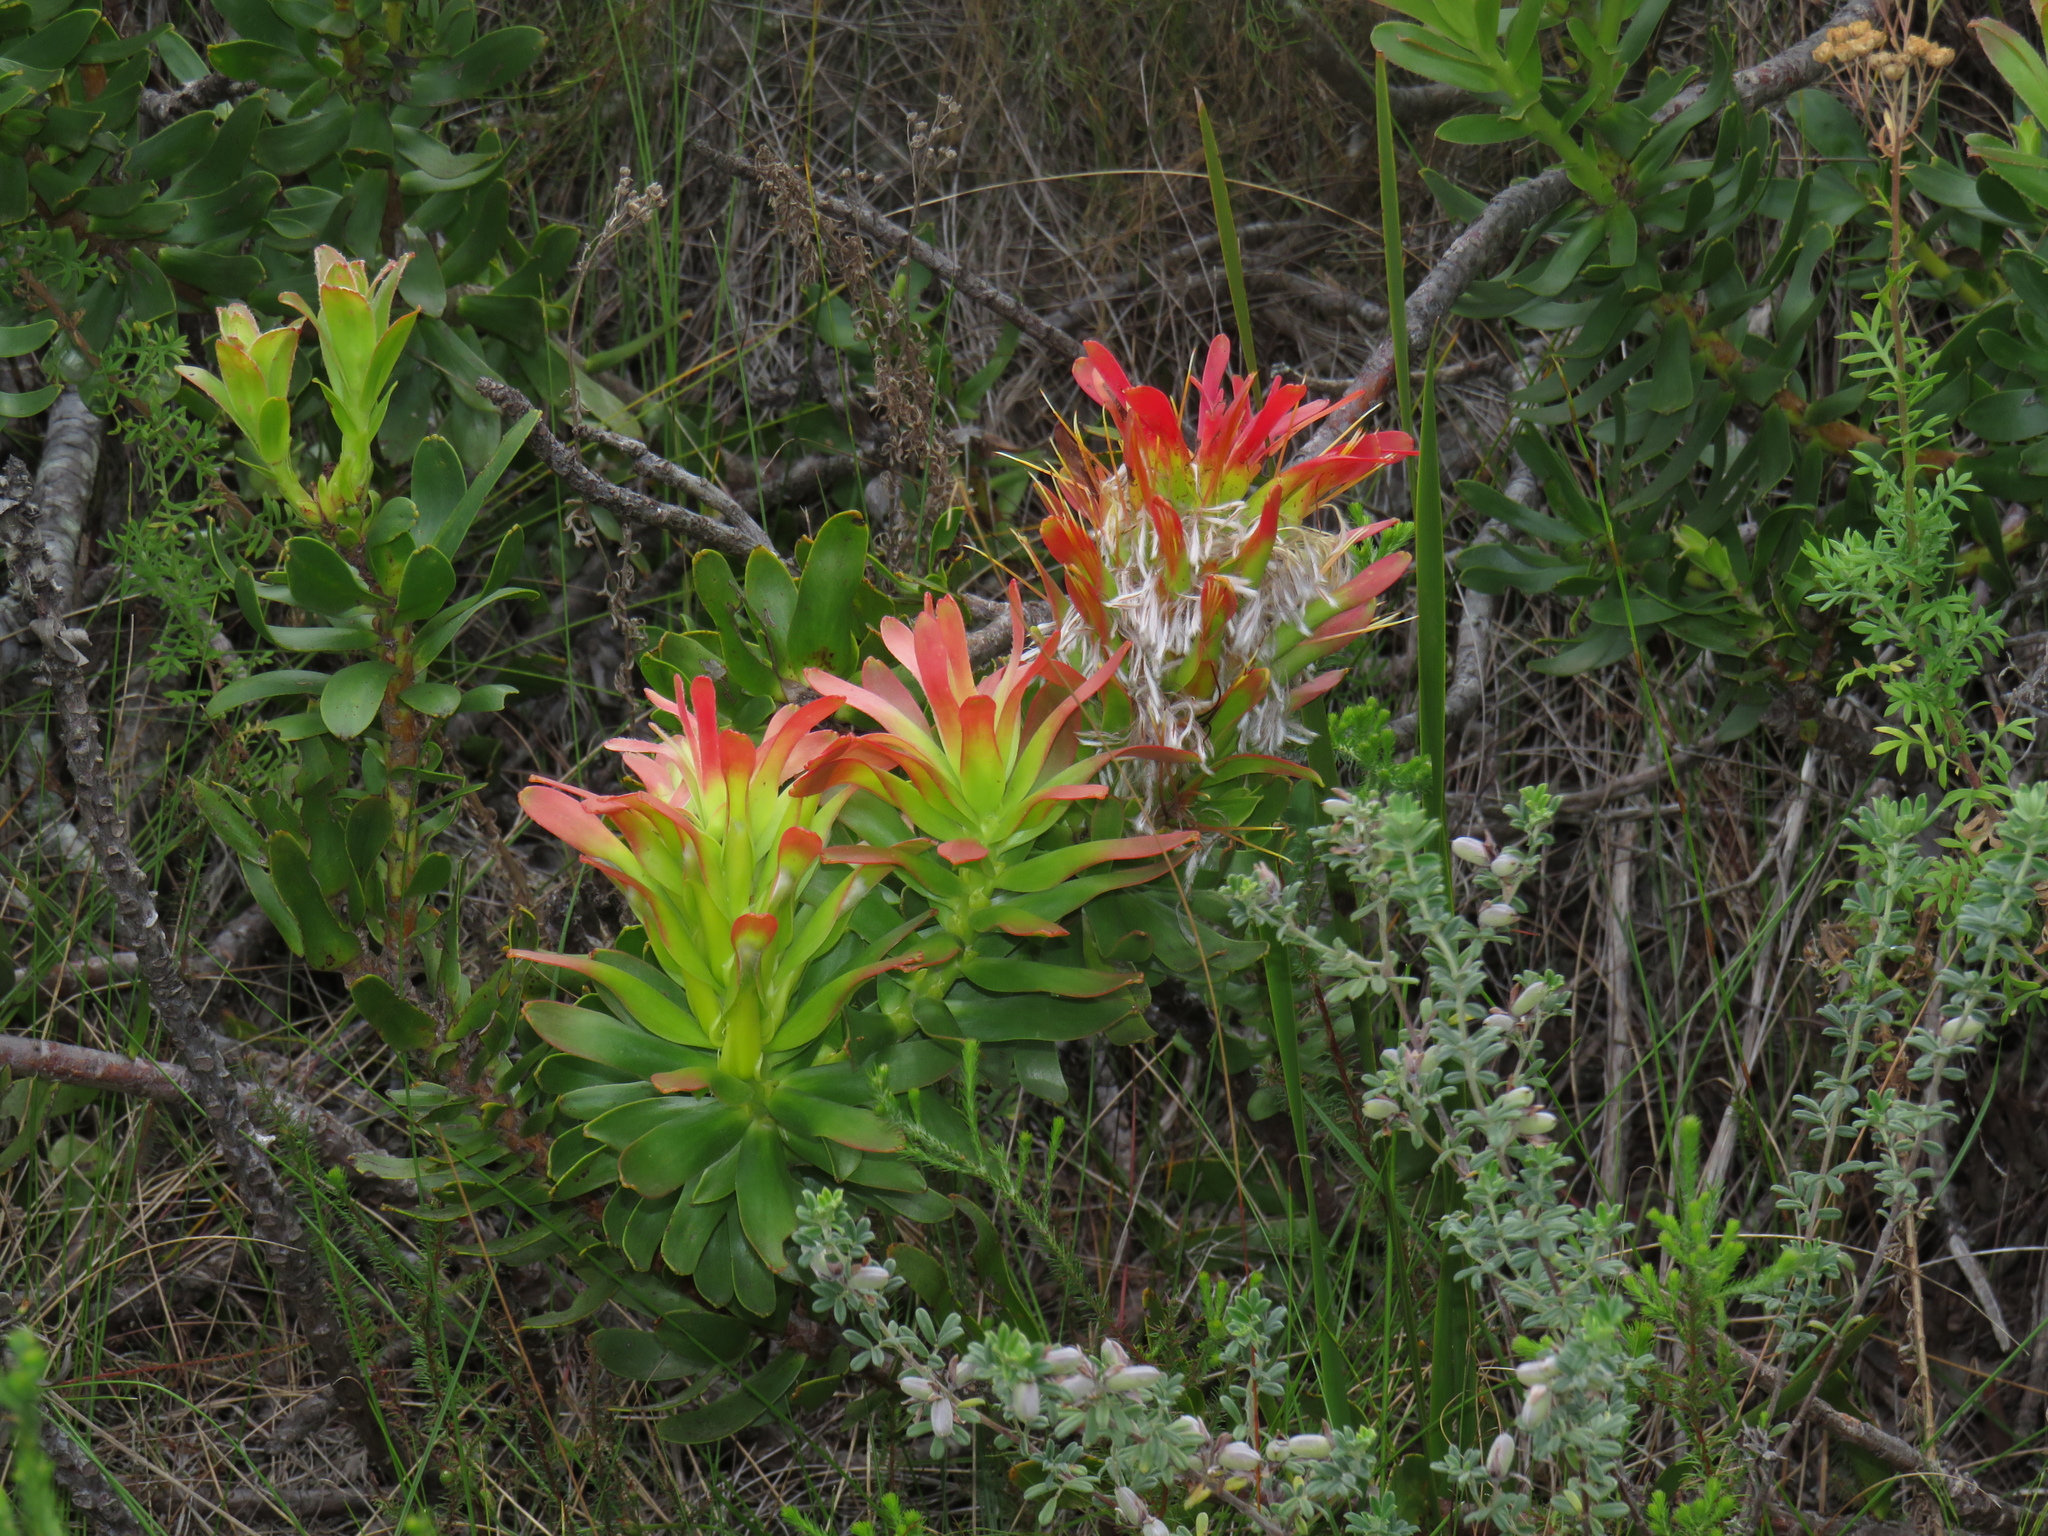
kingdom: Plantae
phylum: Tracheophyta
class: Magnoliopsida
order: Proteales
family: Proteaceae
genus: Mimetes
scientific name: Mimetes cucullatus
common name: Common pagoda
